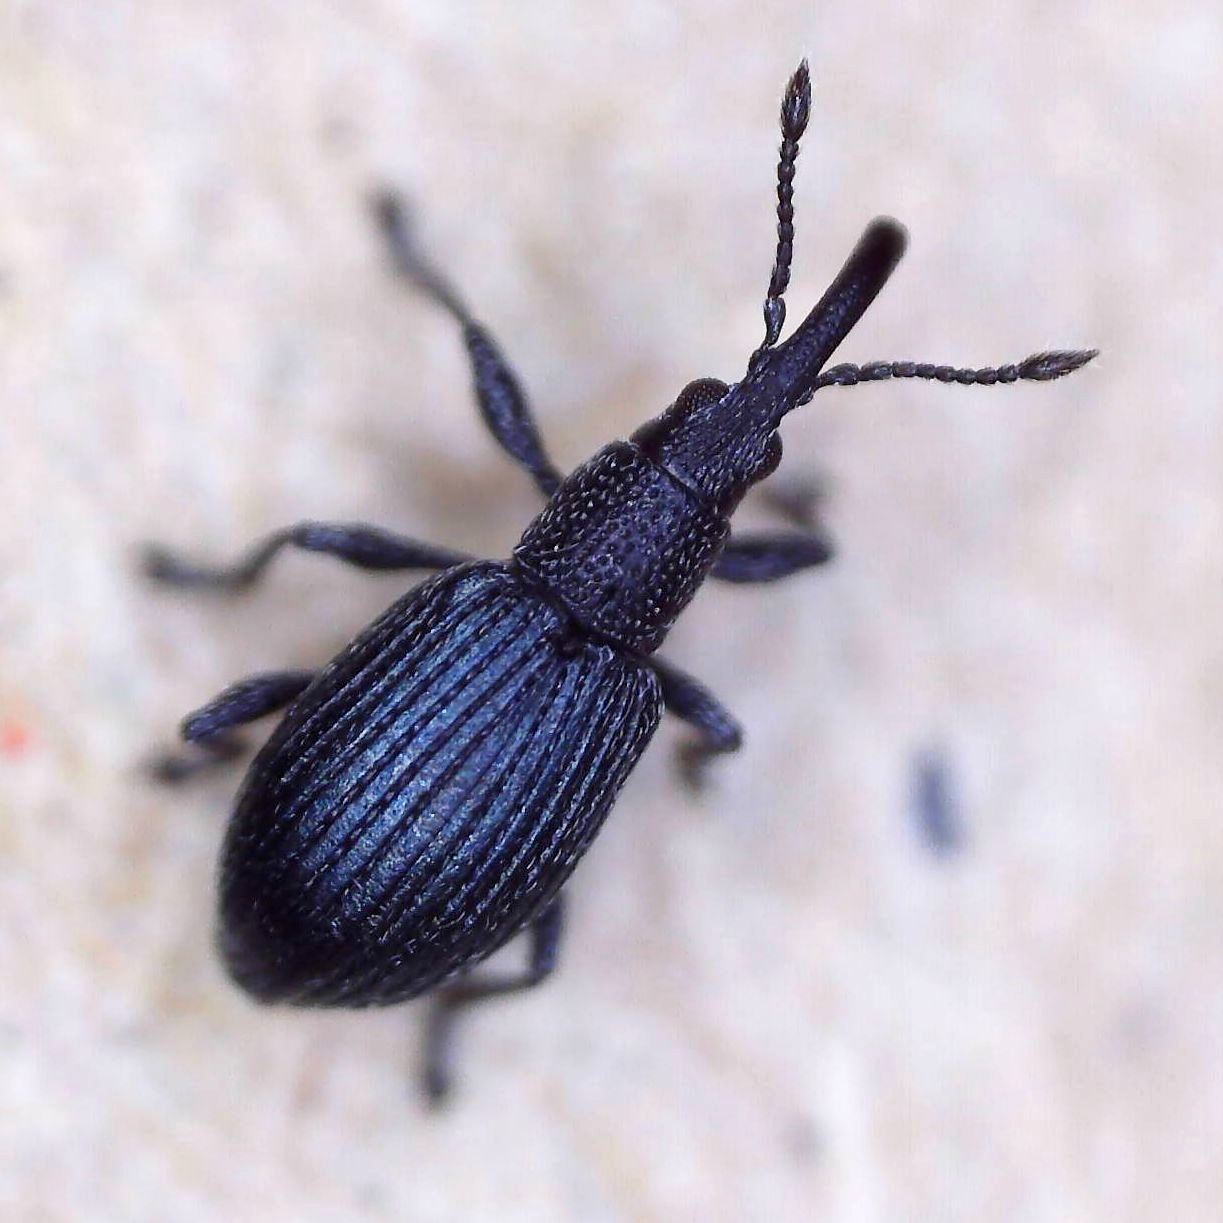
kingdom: Animalia
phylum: Arthropoda
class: Insecta
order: Coleoptera
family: Apionidae
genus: Ceratapion
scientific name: Ceratapion gibbirostre
